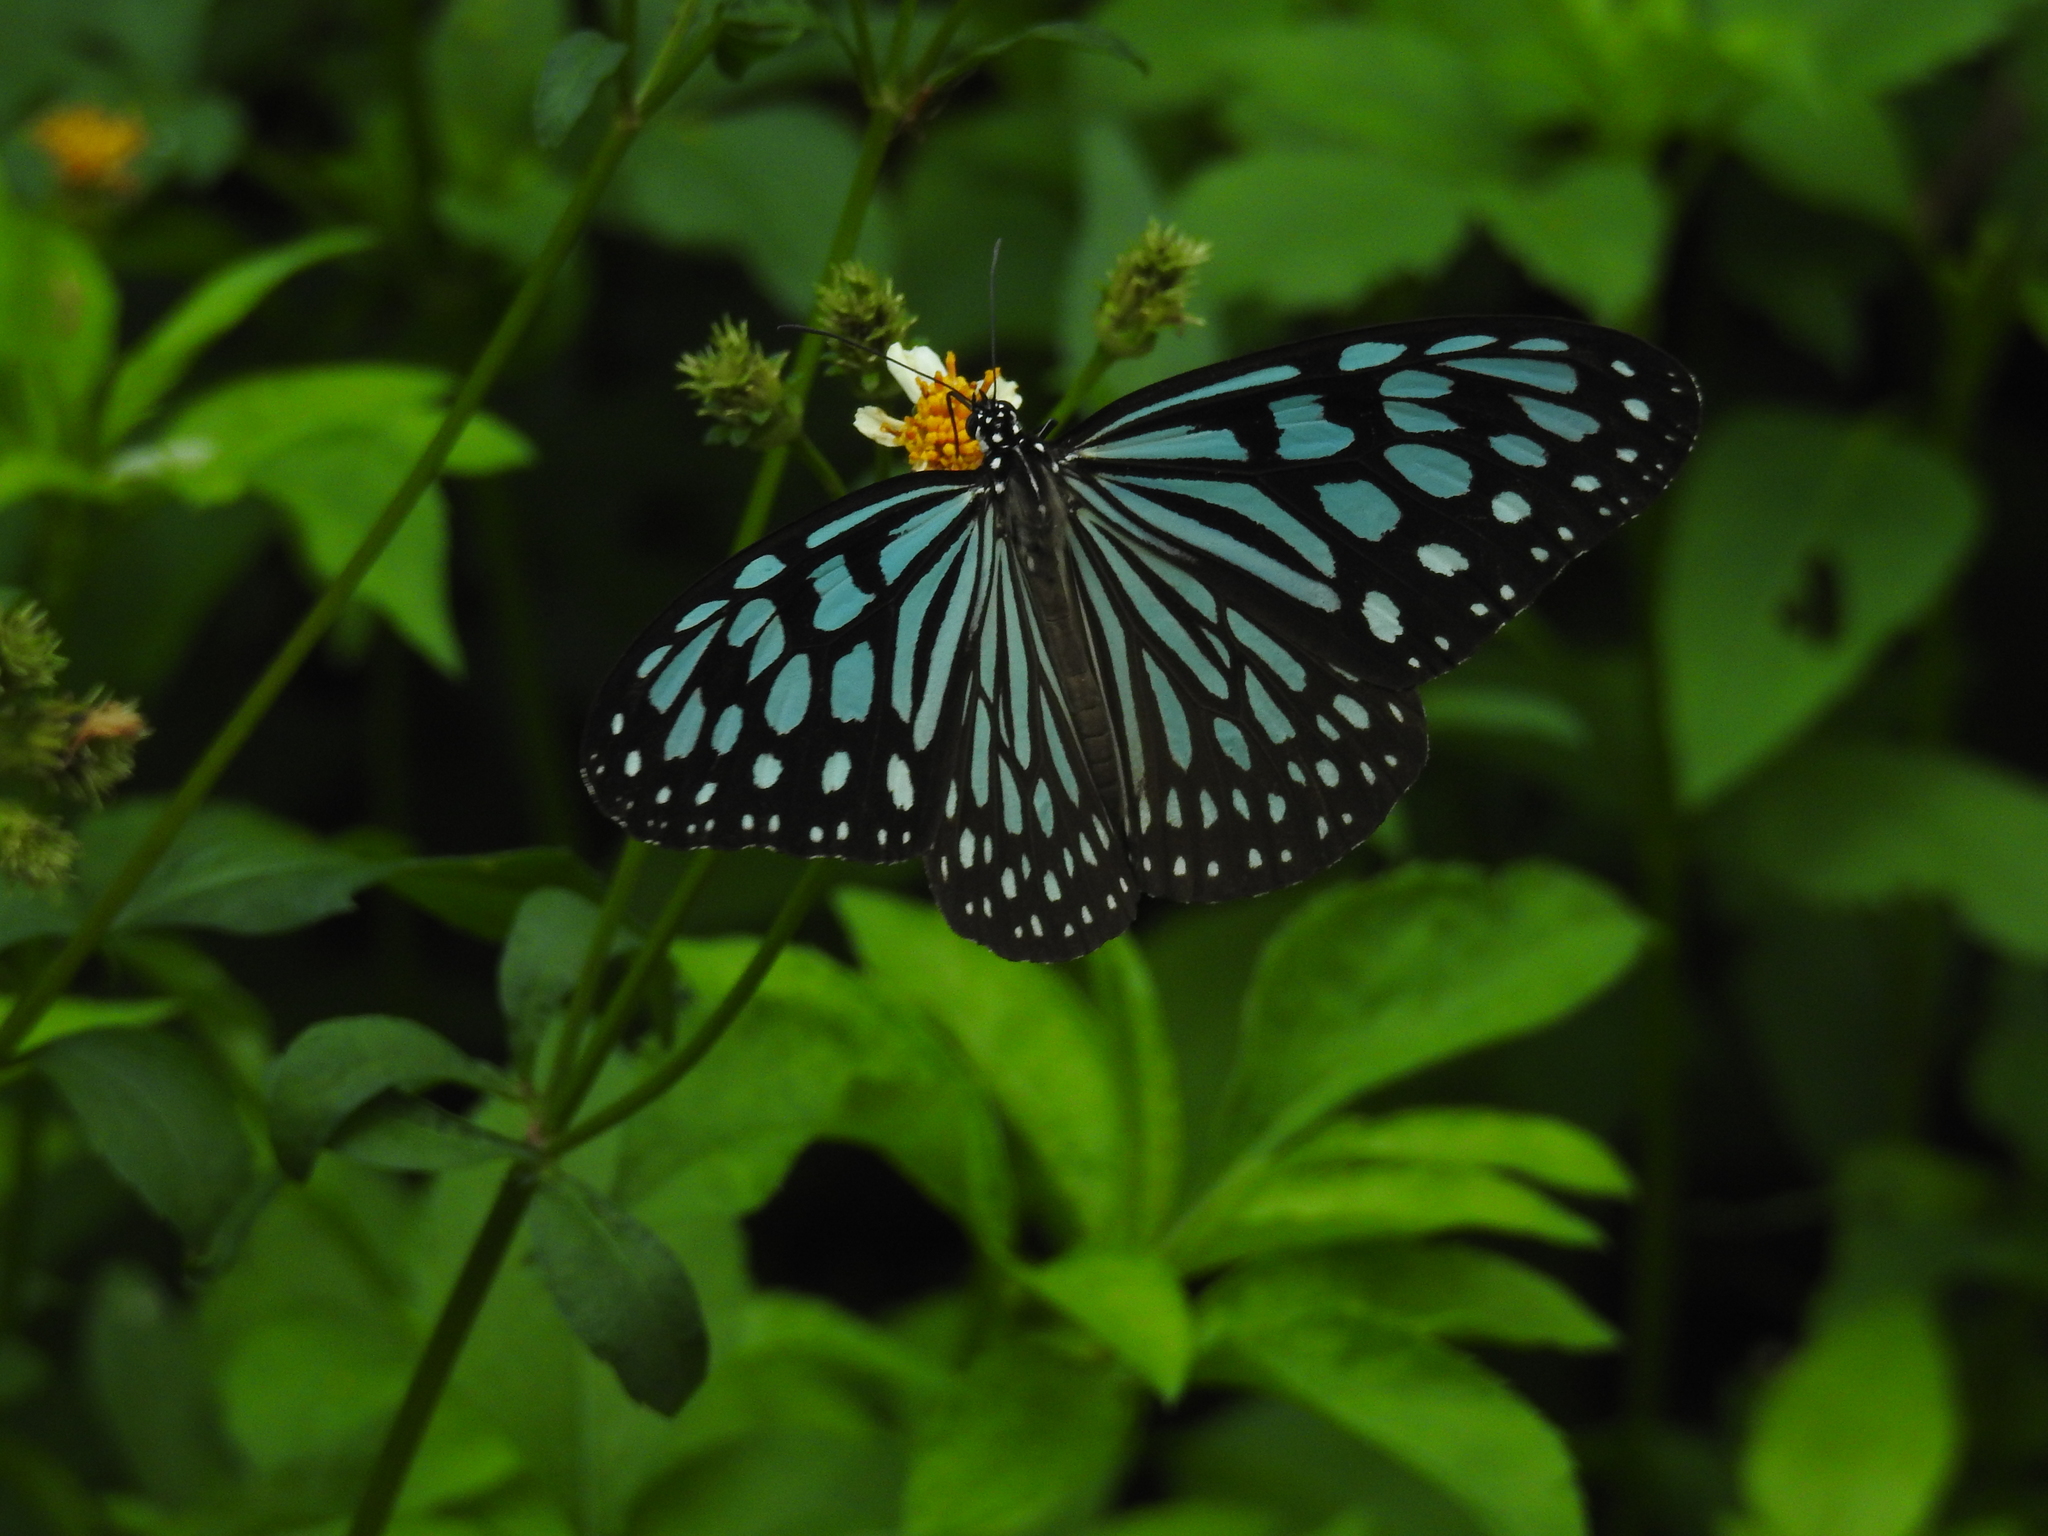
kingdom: Animalia
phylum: Arthropoda
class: Insecta
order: Lepidoptera
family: Nymphalidae
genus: Ideopsis
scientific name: Ideopsis similis
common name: Ceylon blue glassy tiger
